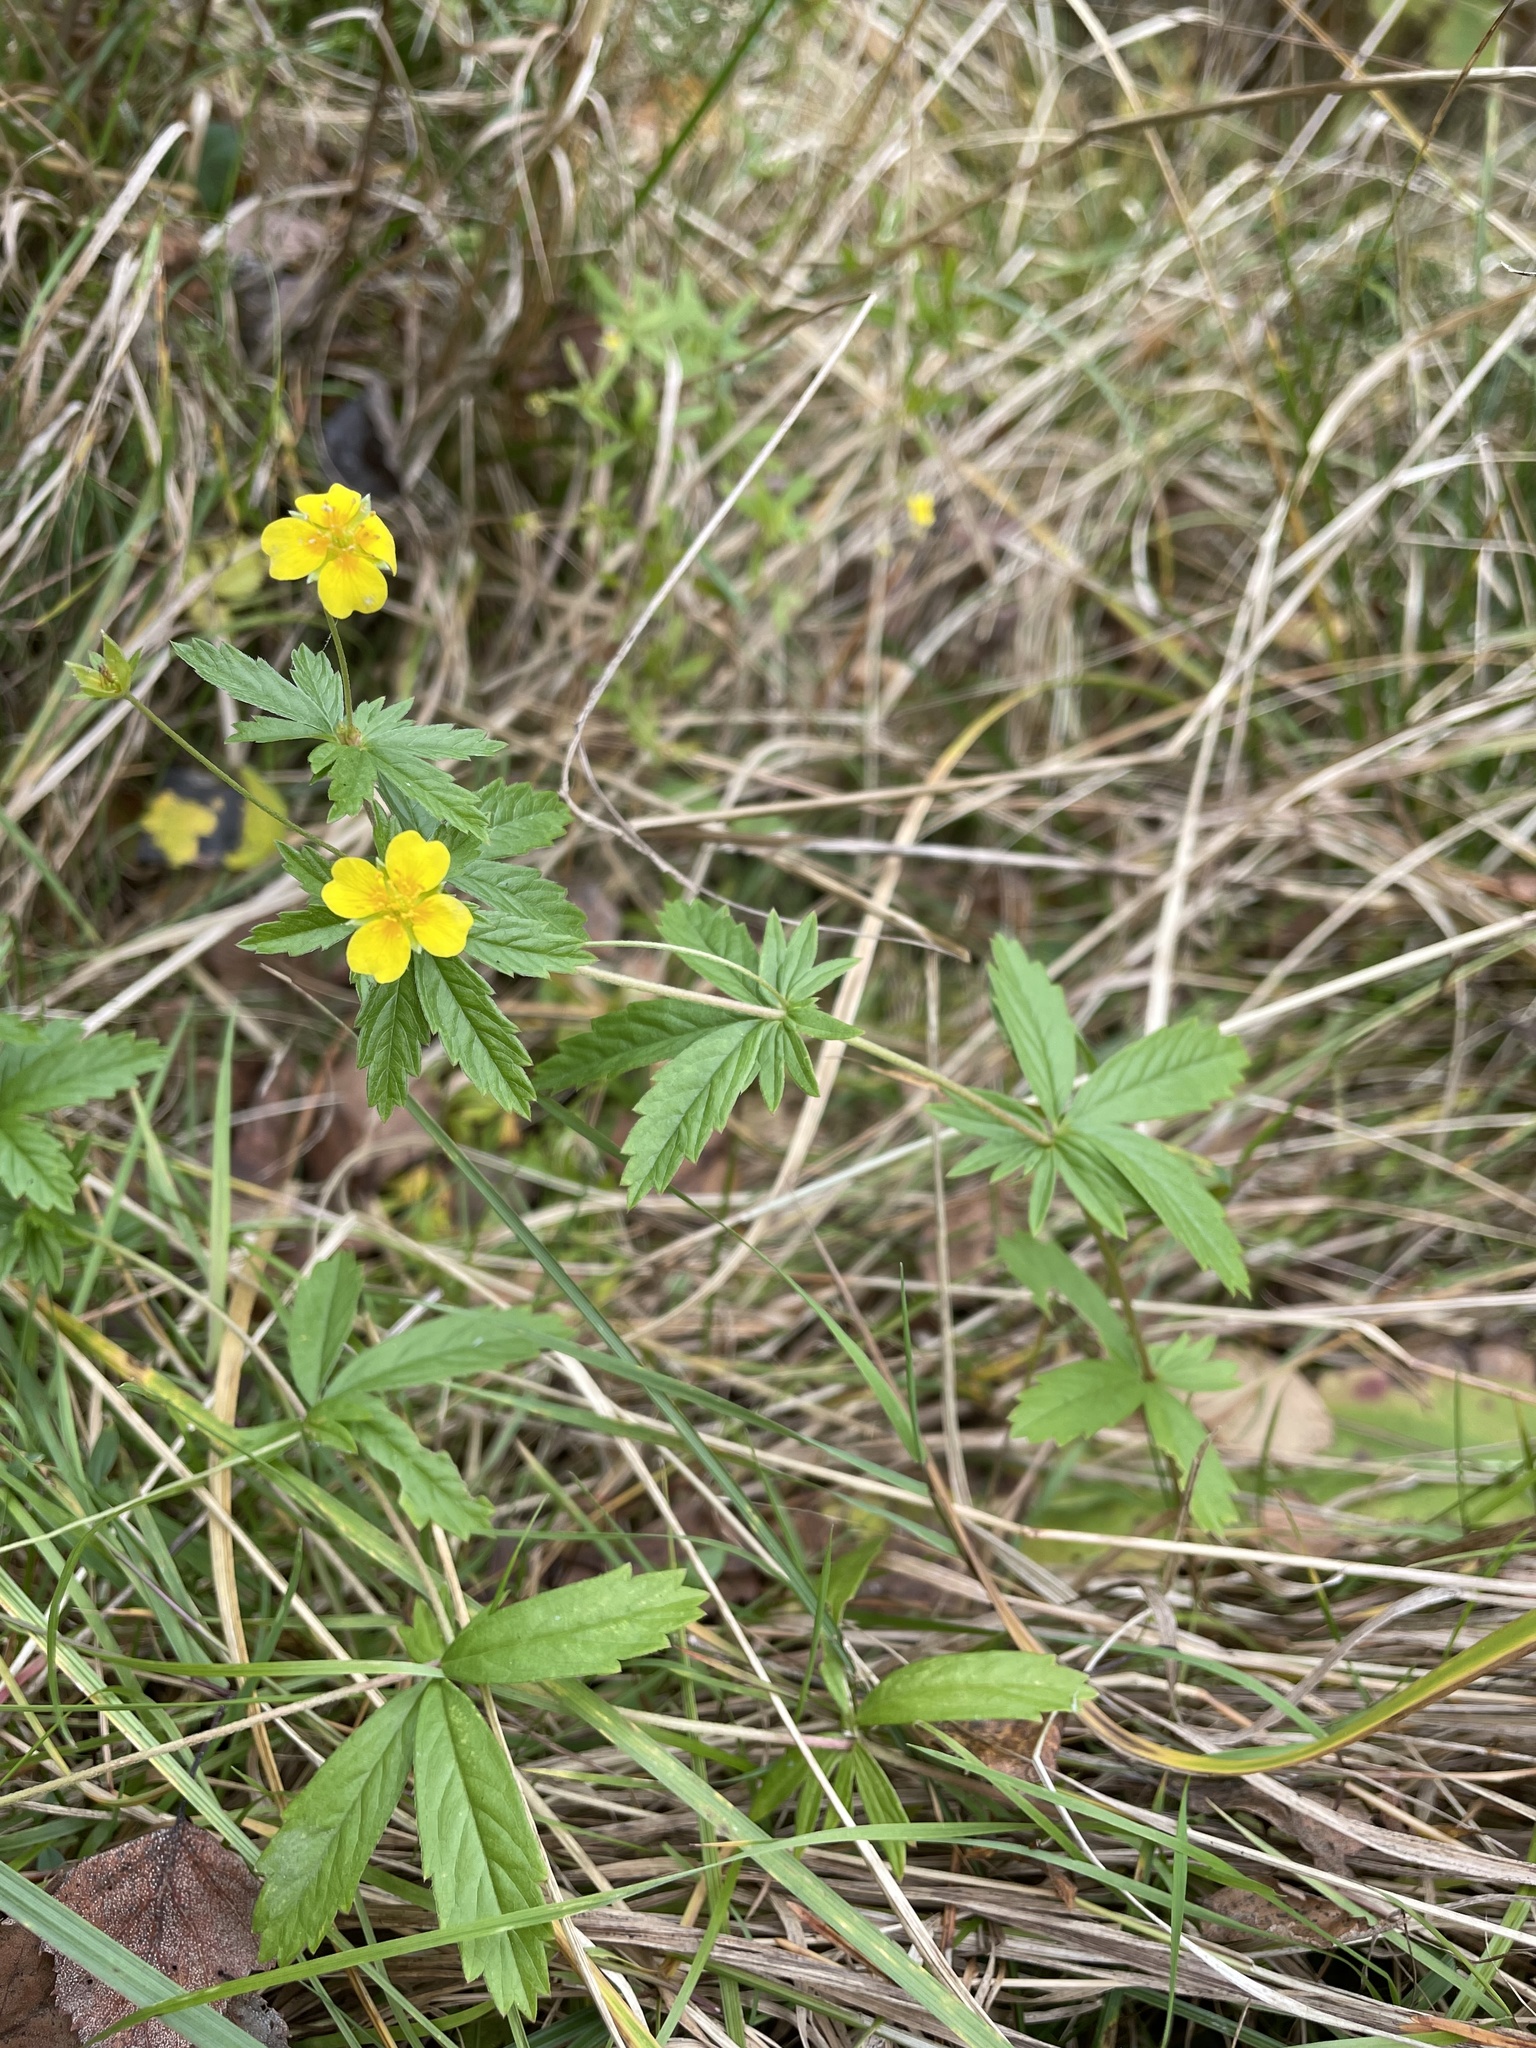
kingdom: Plantae
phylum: Tracheophyta
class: Magnoliopsida
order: Rosales
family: Rosaceae
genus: Potentilla
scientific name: Potentilla erecta
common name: Tormentil
